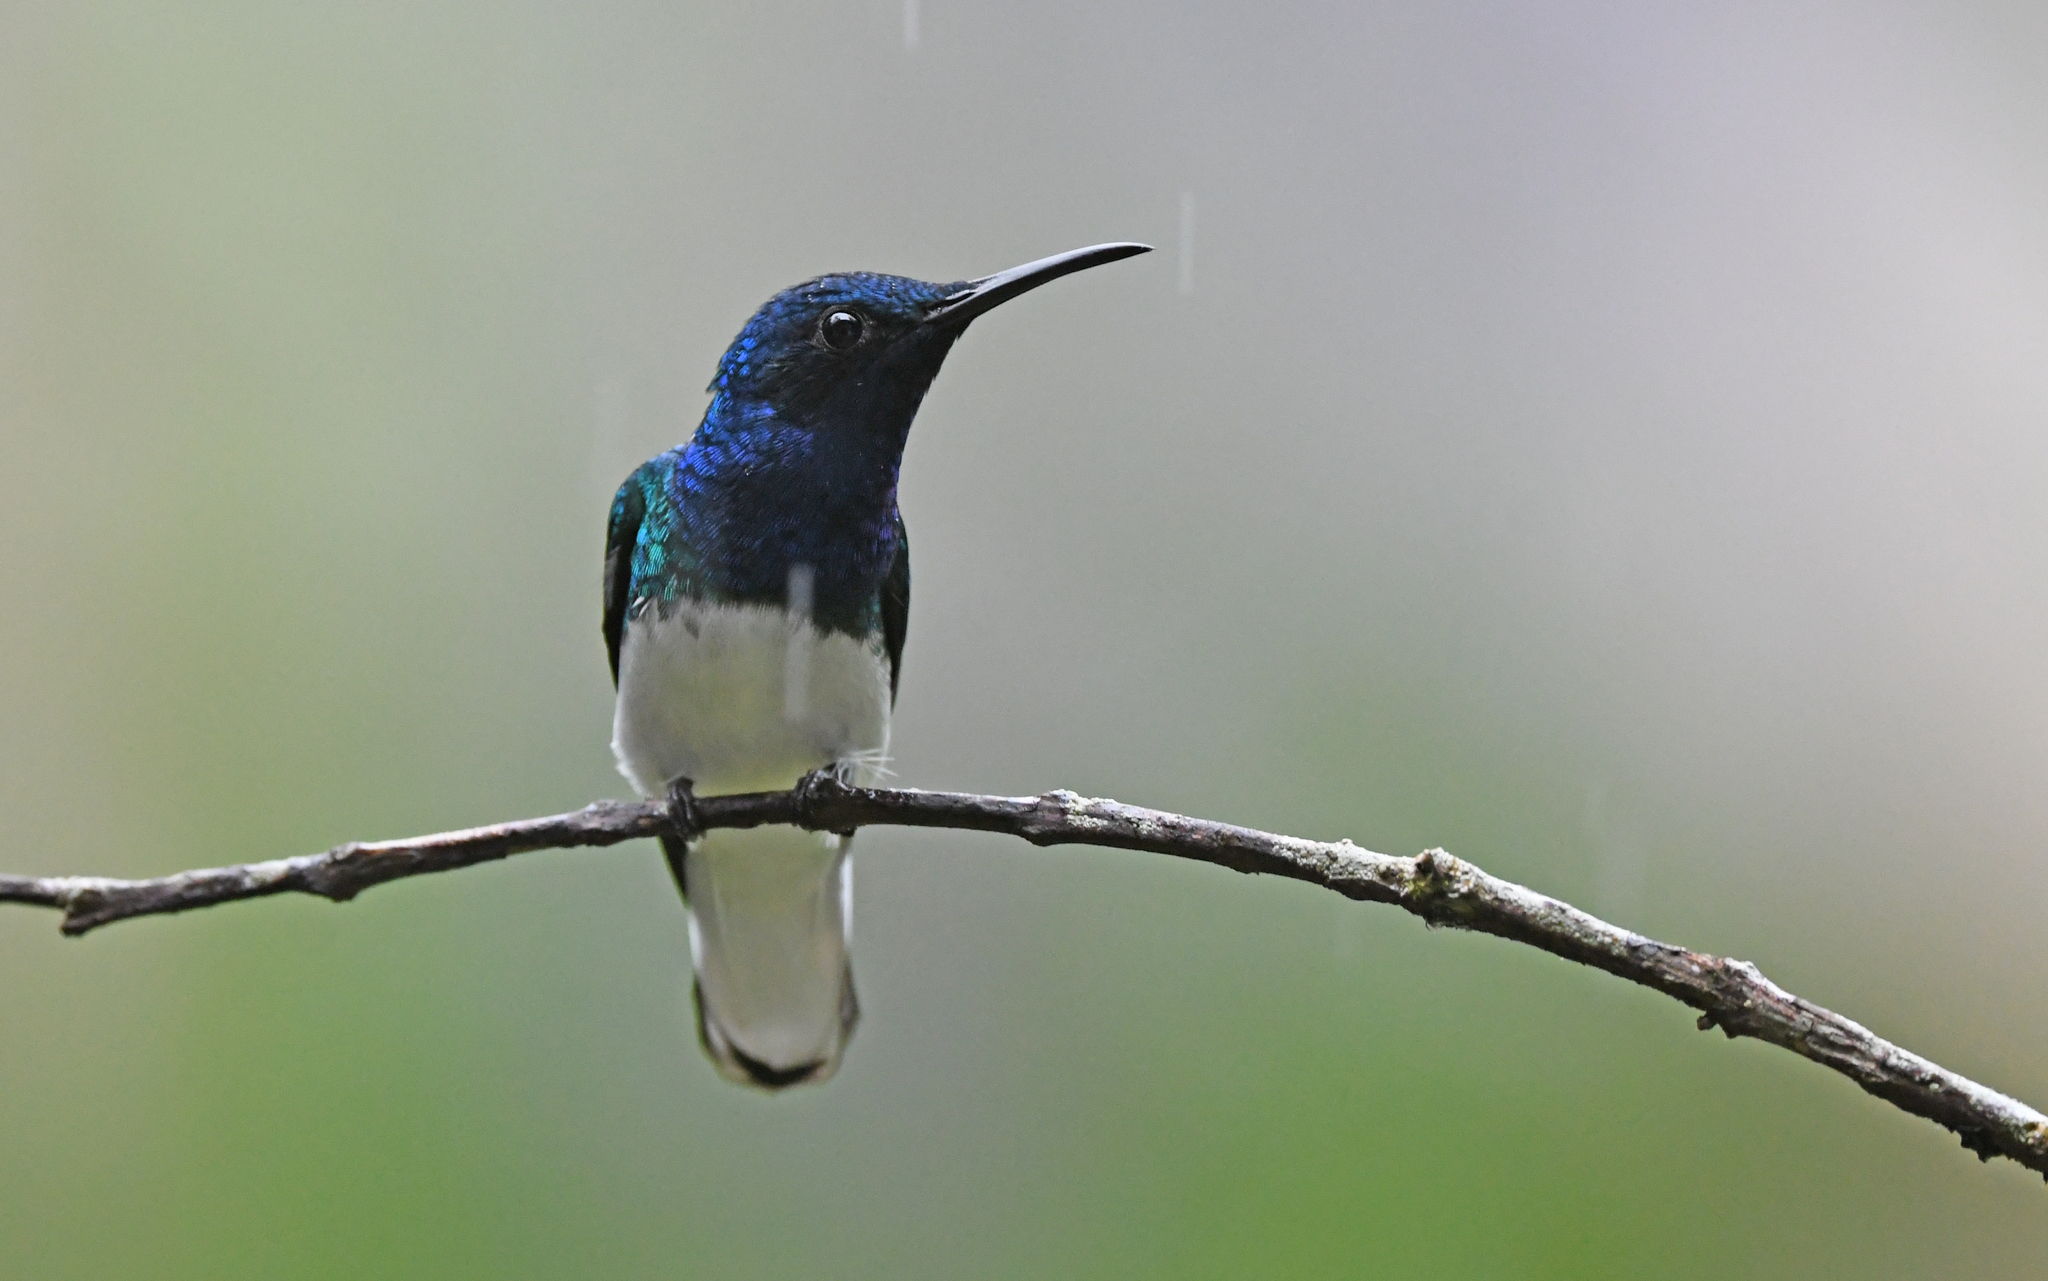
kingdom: Animalia
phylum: Chordata
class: Aves
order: Apodiformes
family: Trochilidae
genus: Florisuga
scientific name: Florisuga mellivora
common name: White-necked jacobin
